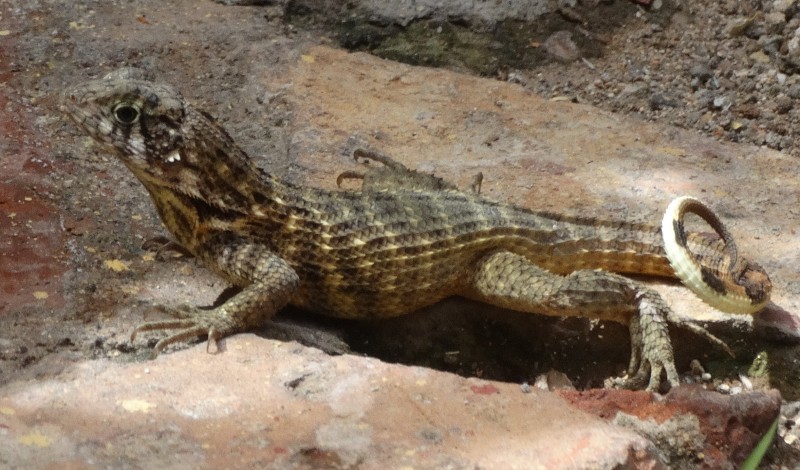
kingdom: Animalia
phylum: Chordata
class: Squamata
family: Leiocephalidae
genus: Leiocephalus
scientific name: Leiocephalus carinatus
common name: Northern curly-tailed lizard
